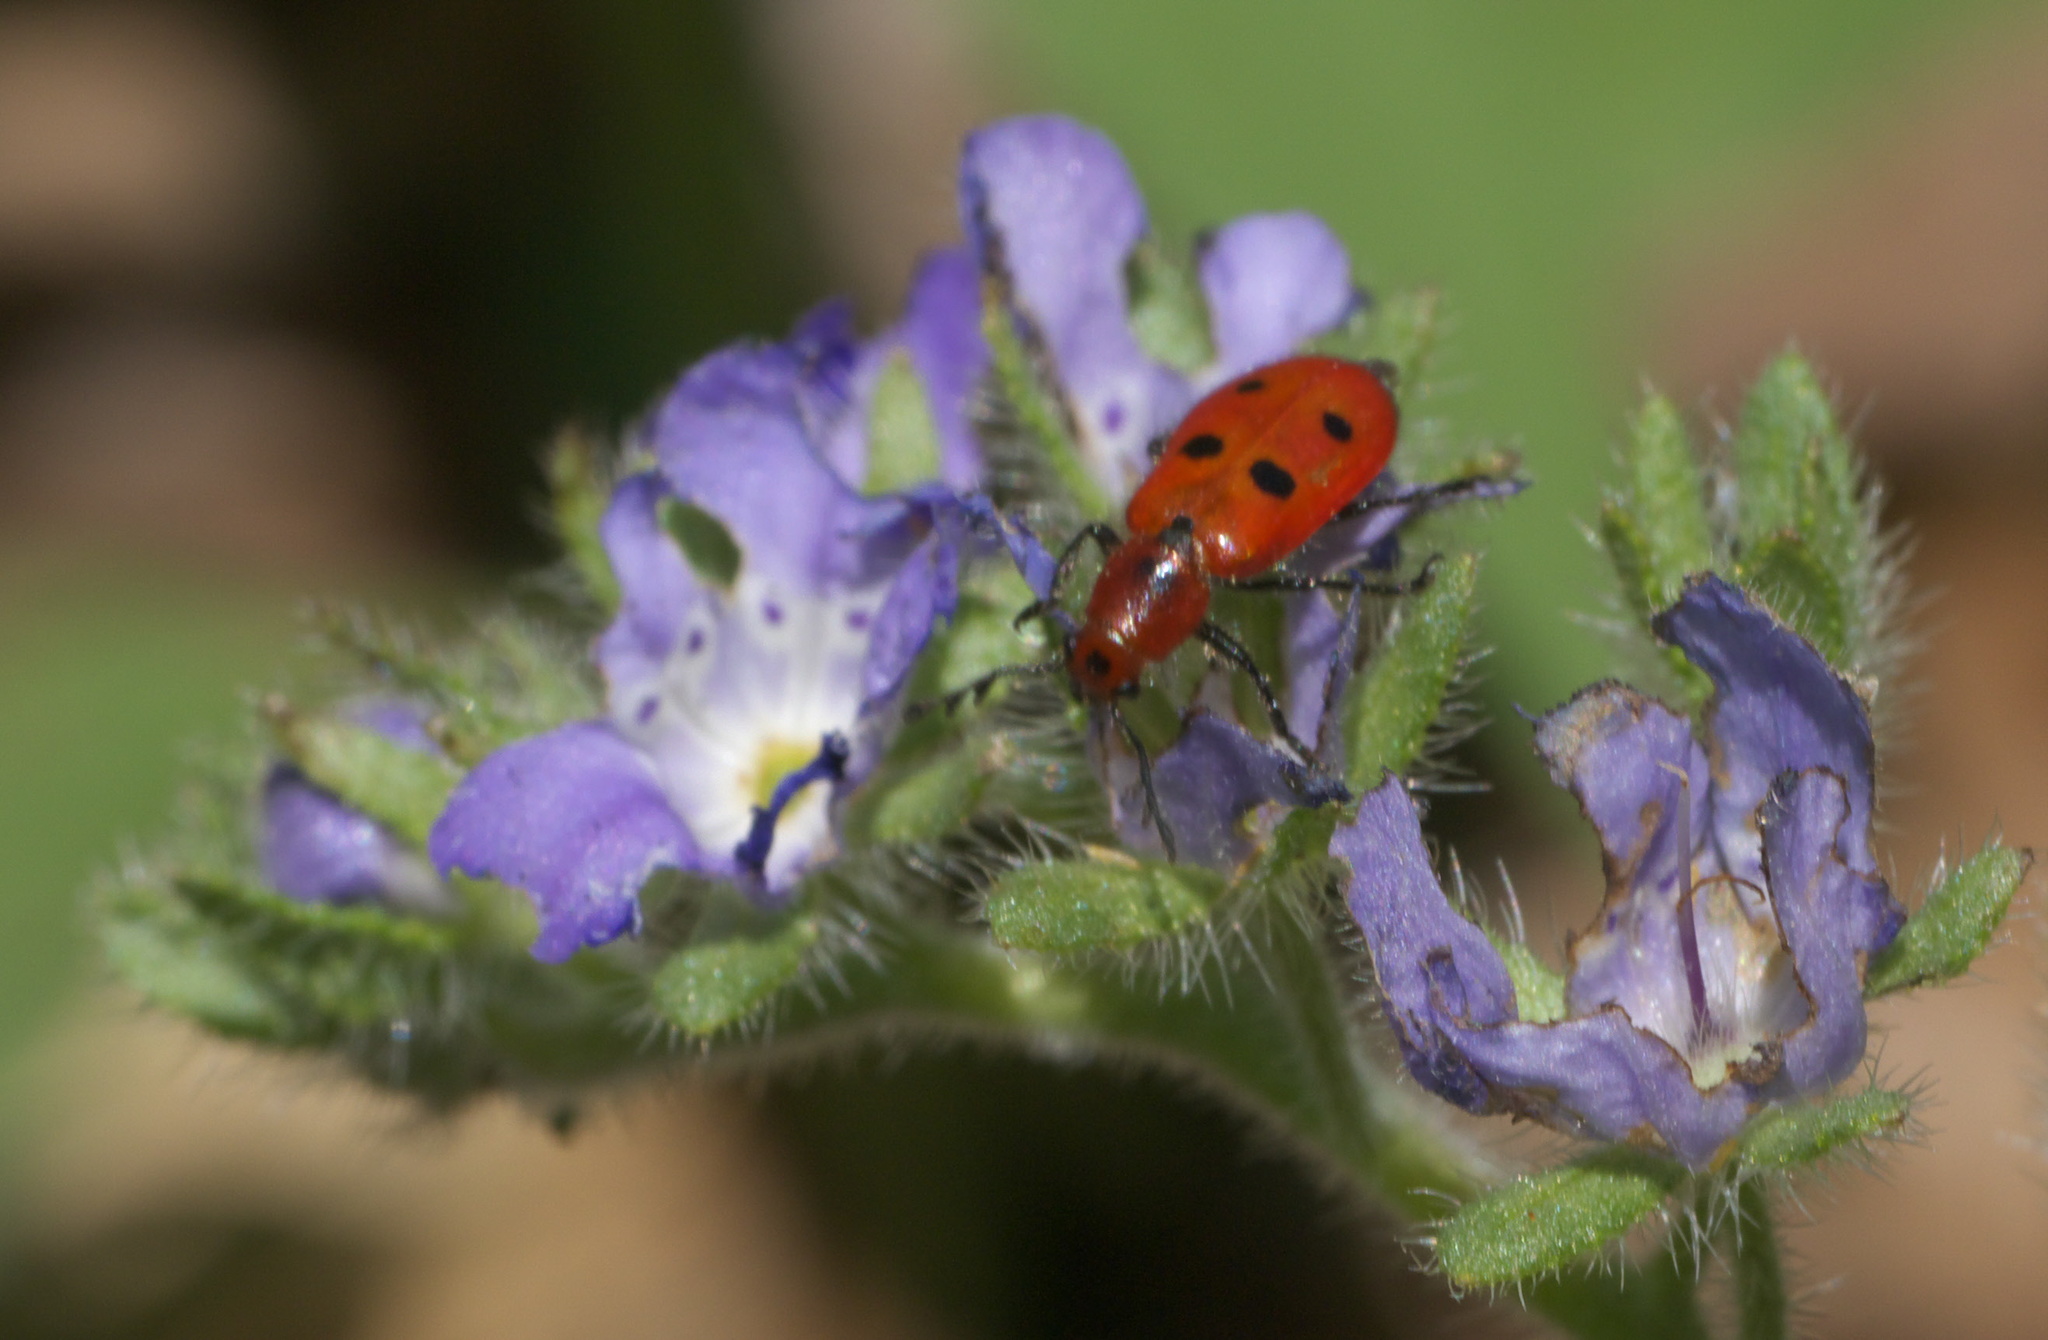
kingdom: Animalia
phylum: Arthropoda
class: Insecta
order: Coleoptera
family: Cleridae
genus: Pelonides
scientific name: Pelonides
